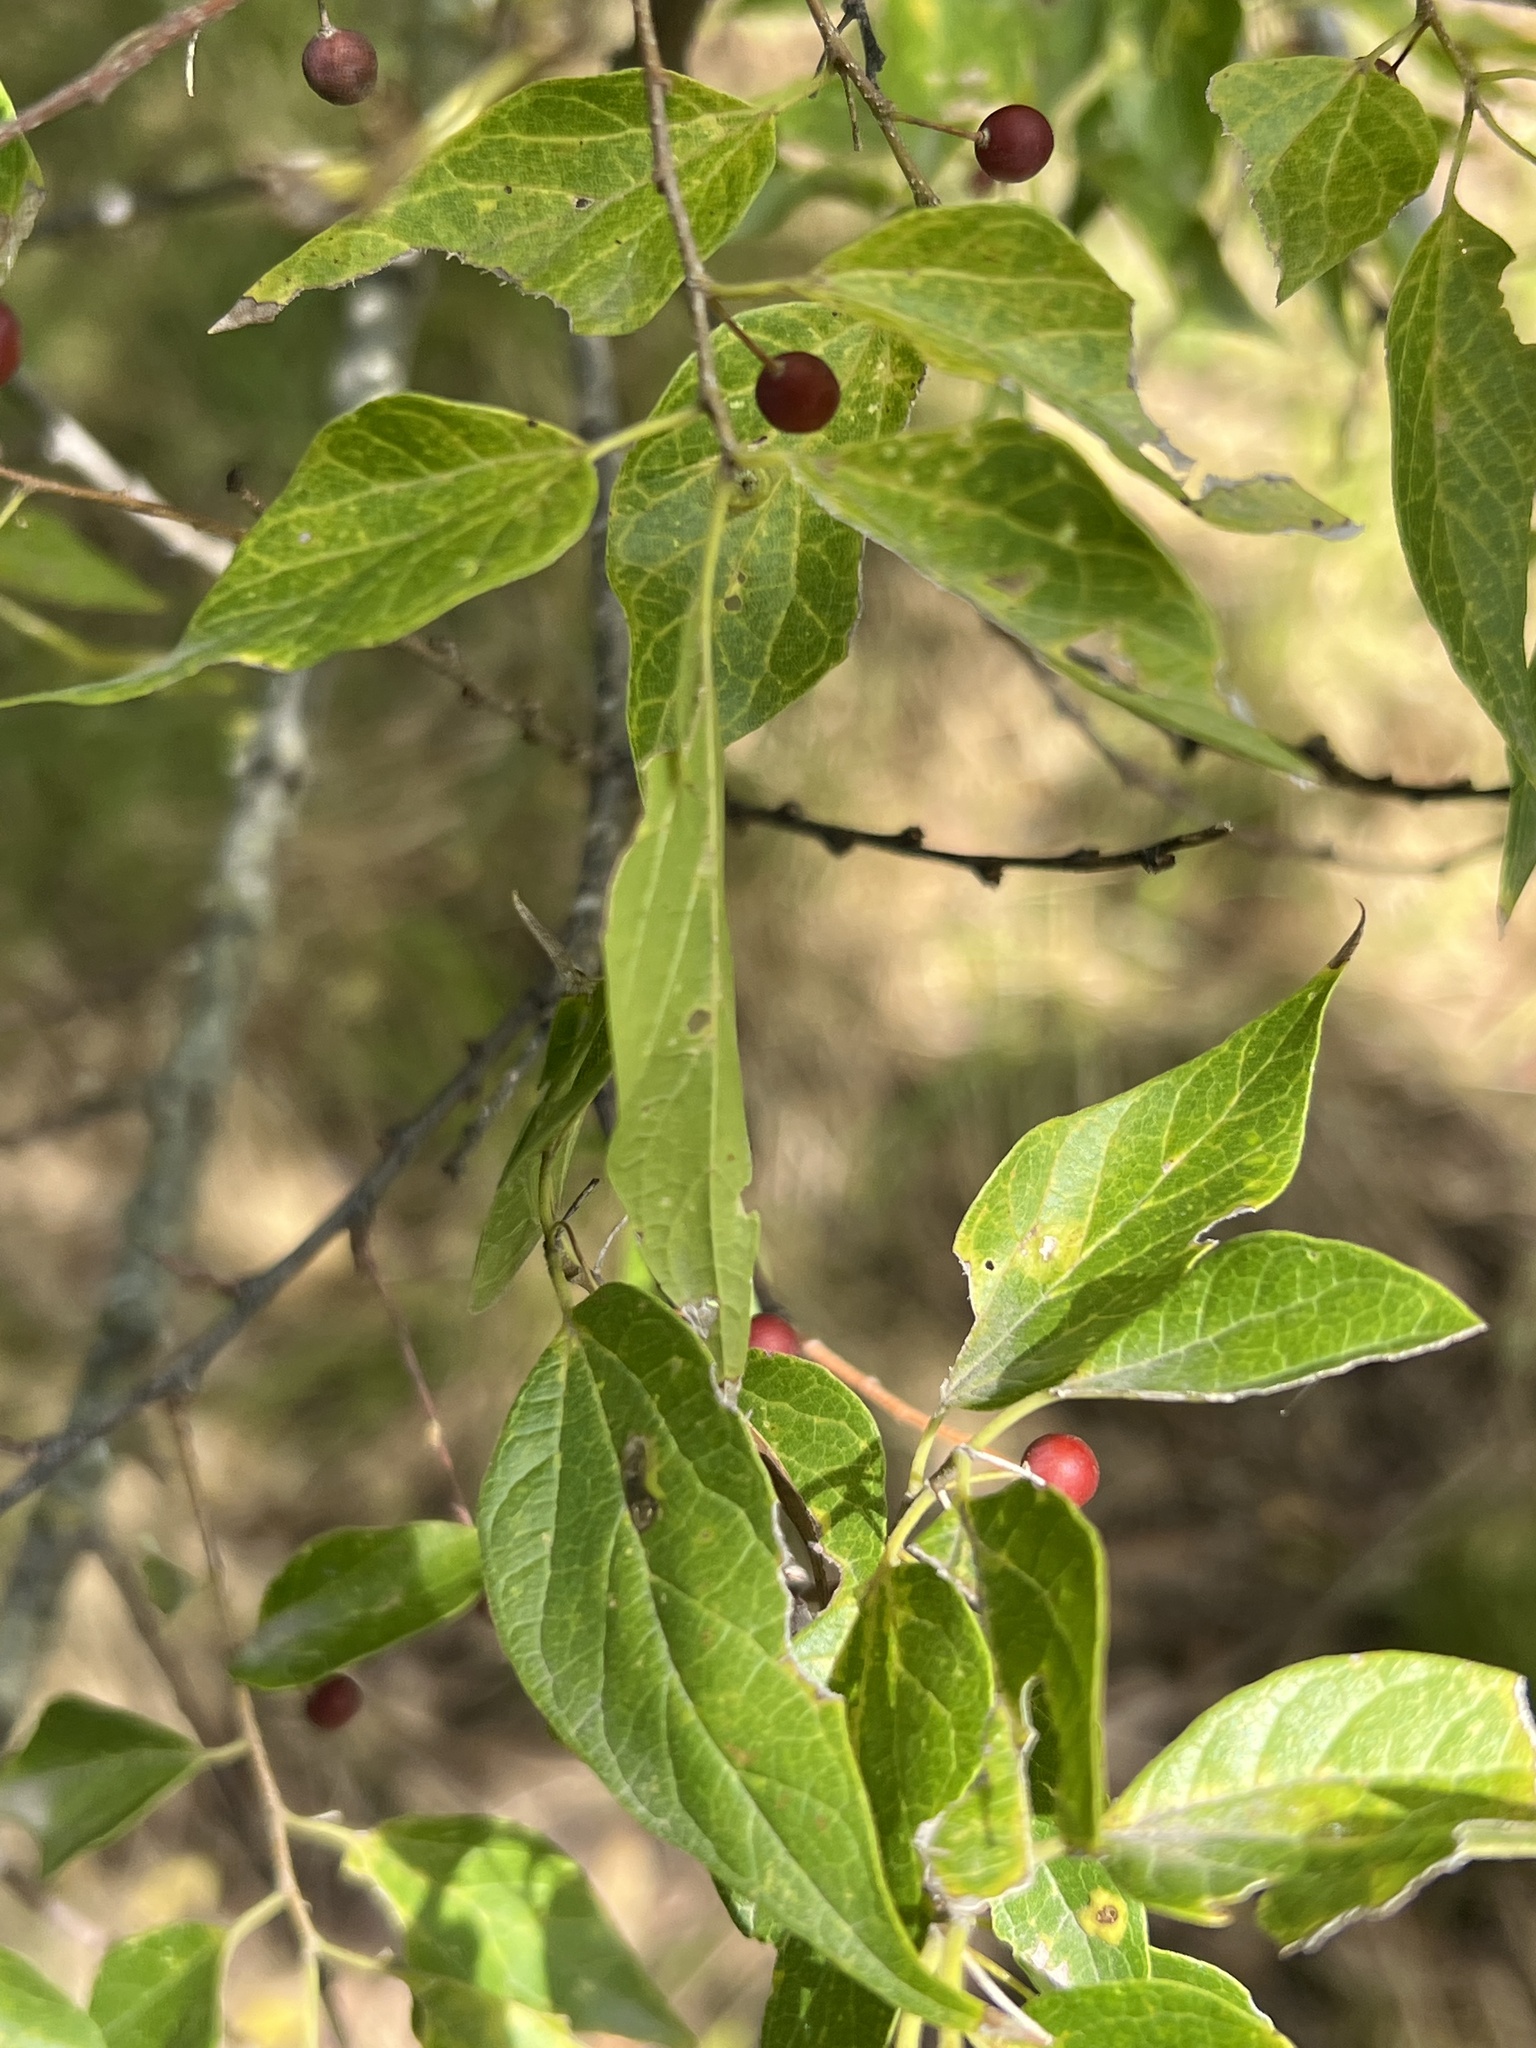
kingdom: Plantae
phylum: Tracheophyta
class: Magnoliopsida
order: Rosales
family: Cannabaceae
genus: Celtis
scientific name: Celtis laevigata
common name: Sugarberry
